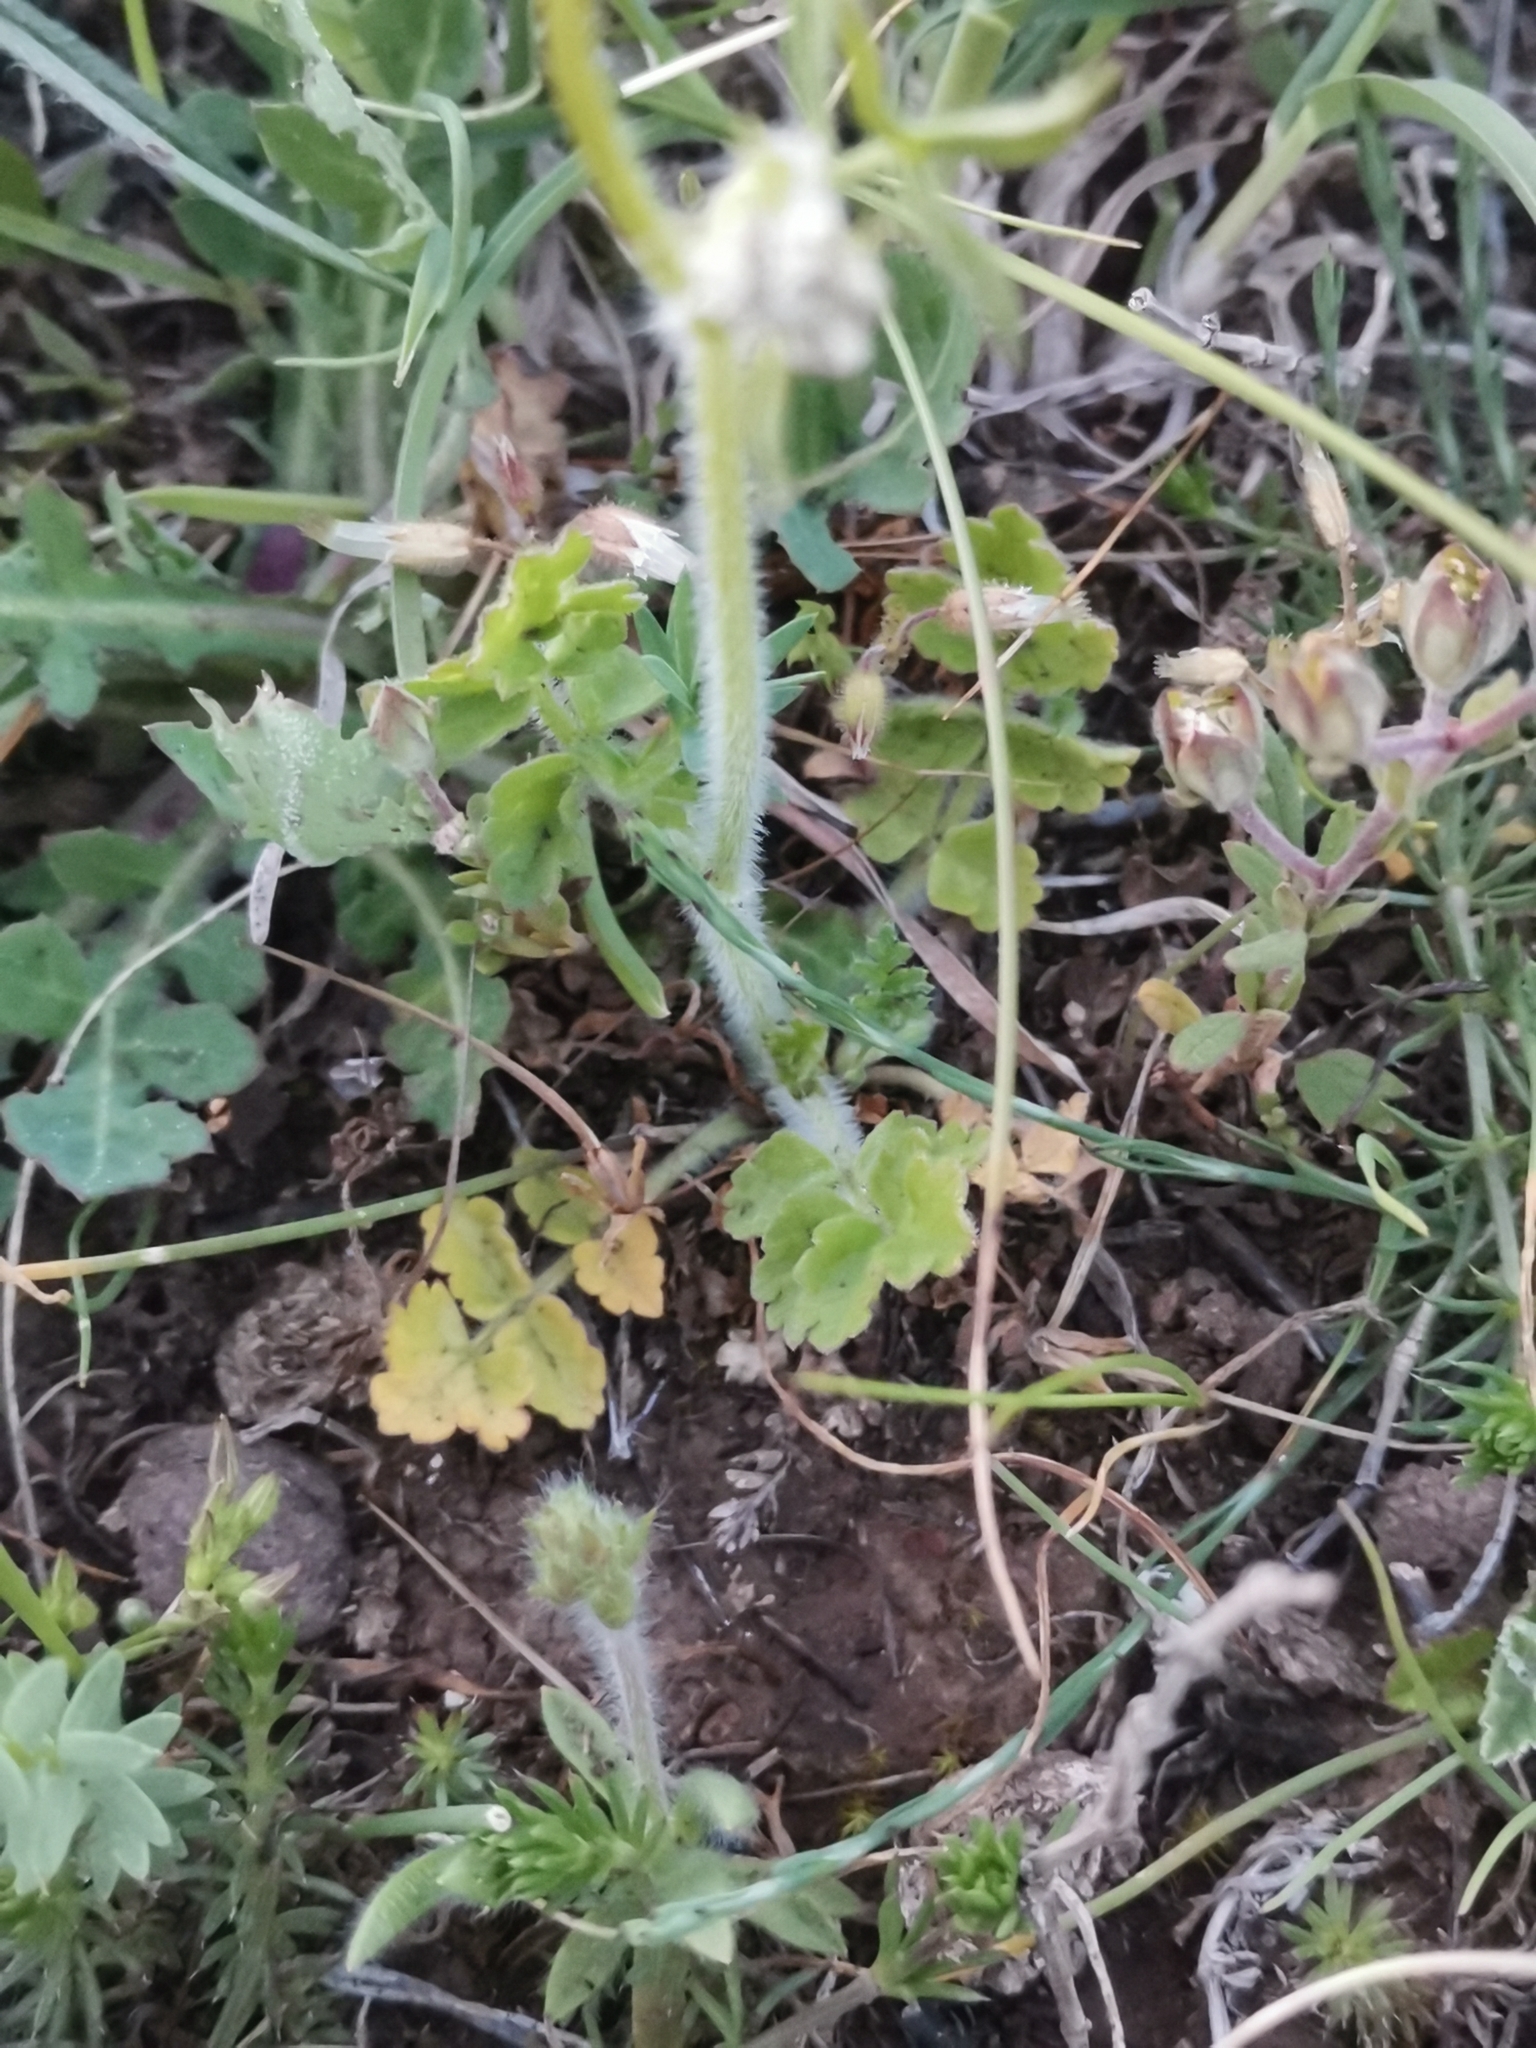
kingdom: Plantae
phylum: Tracheophyta
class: Magnoliopsida
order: Apiales
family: Apiaceae
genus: Tordylium
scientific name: Tordylium apulum
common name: Mediterranean hartwort
